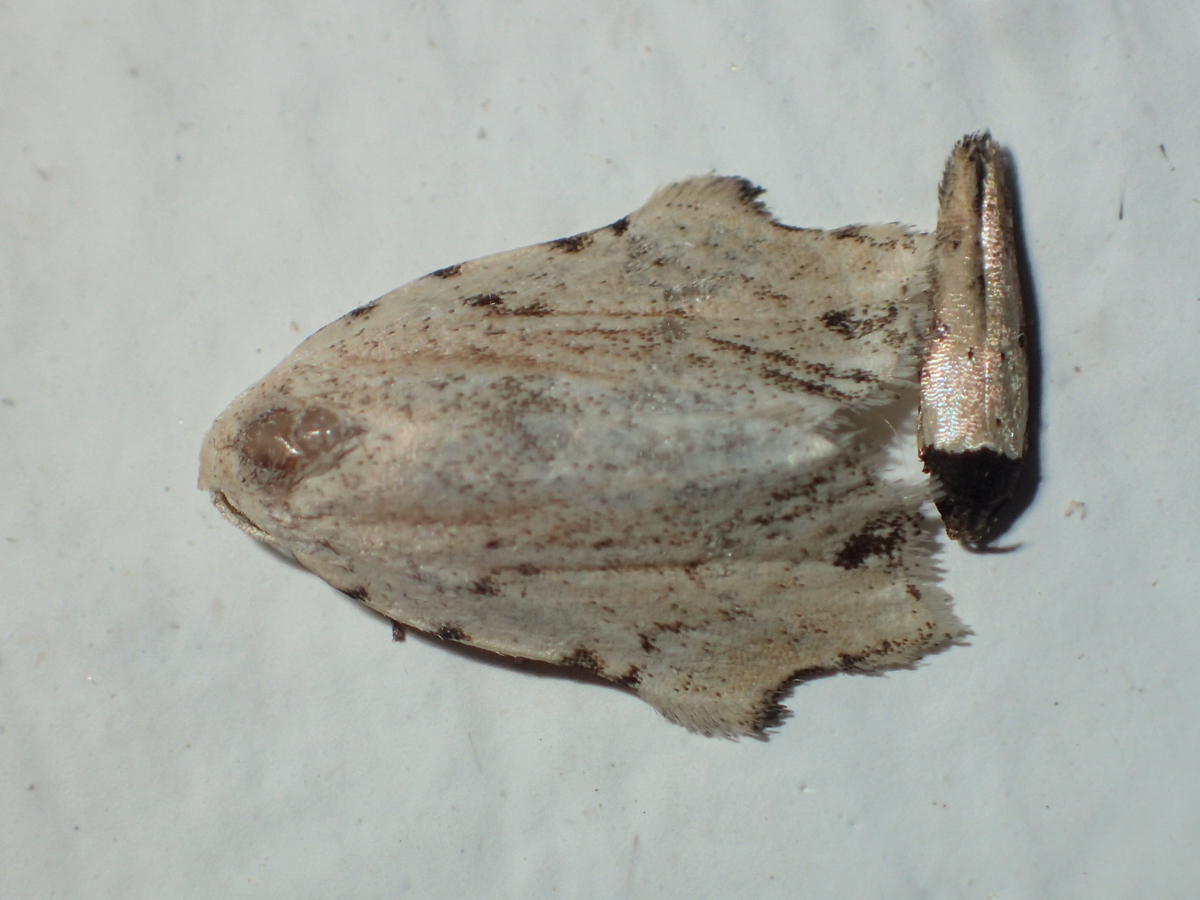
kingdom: Animalia
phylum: Arthropoda
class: Insecta
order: Lepidoptera
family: Erebidae
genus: Tortricosia
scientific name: Tortricosia classeyi
